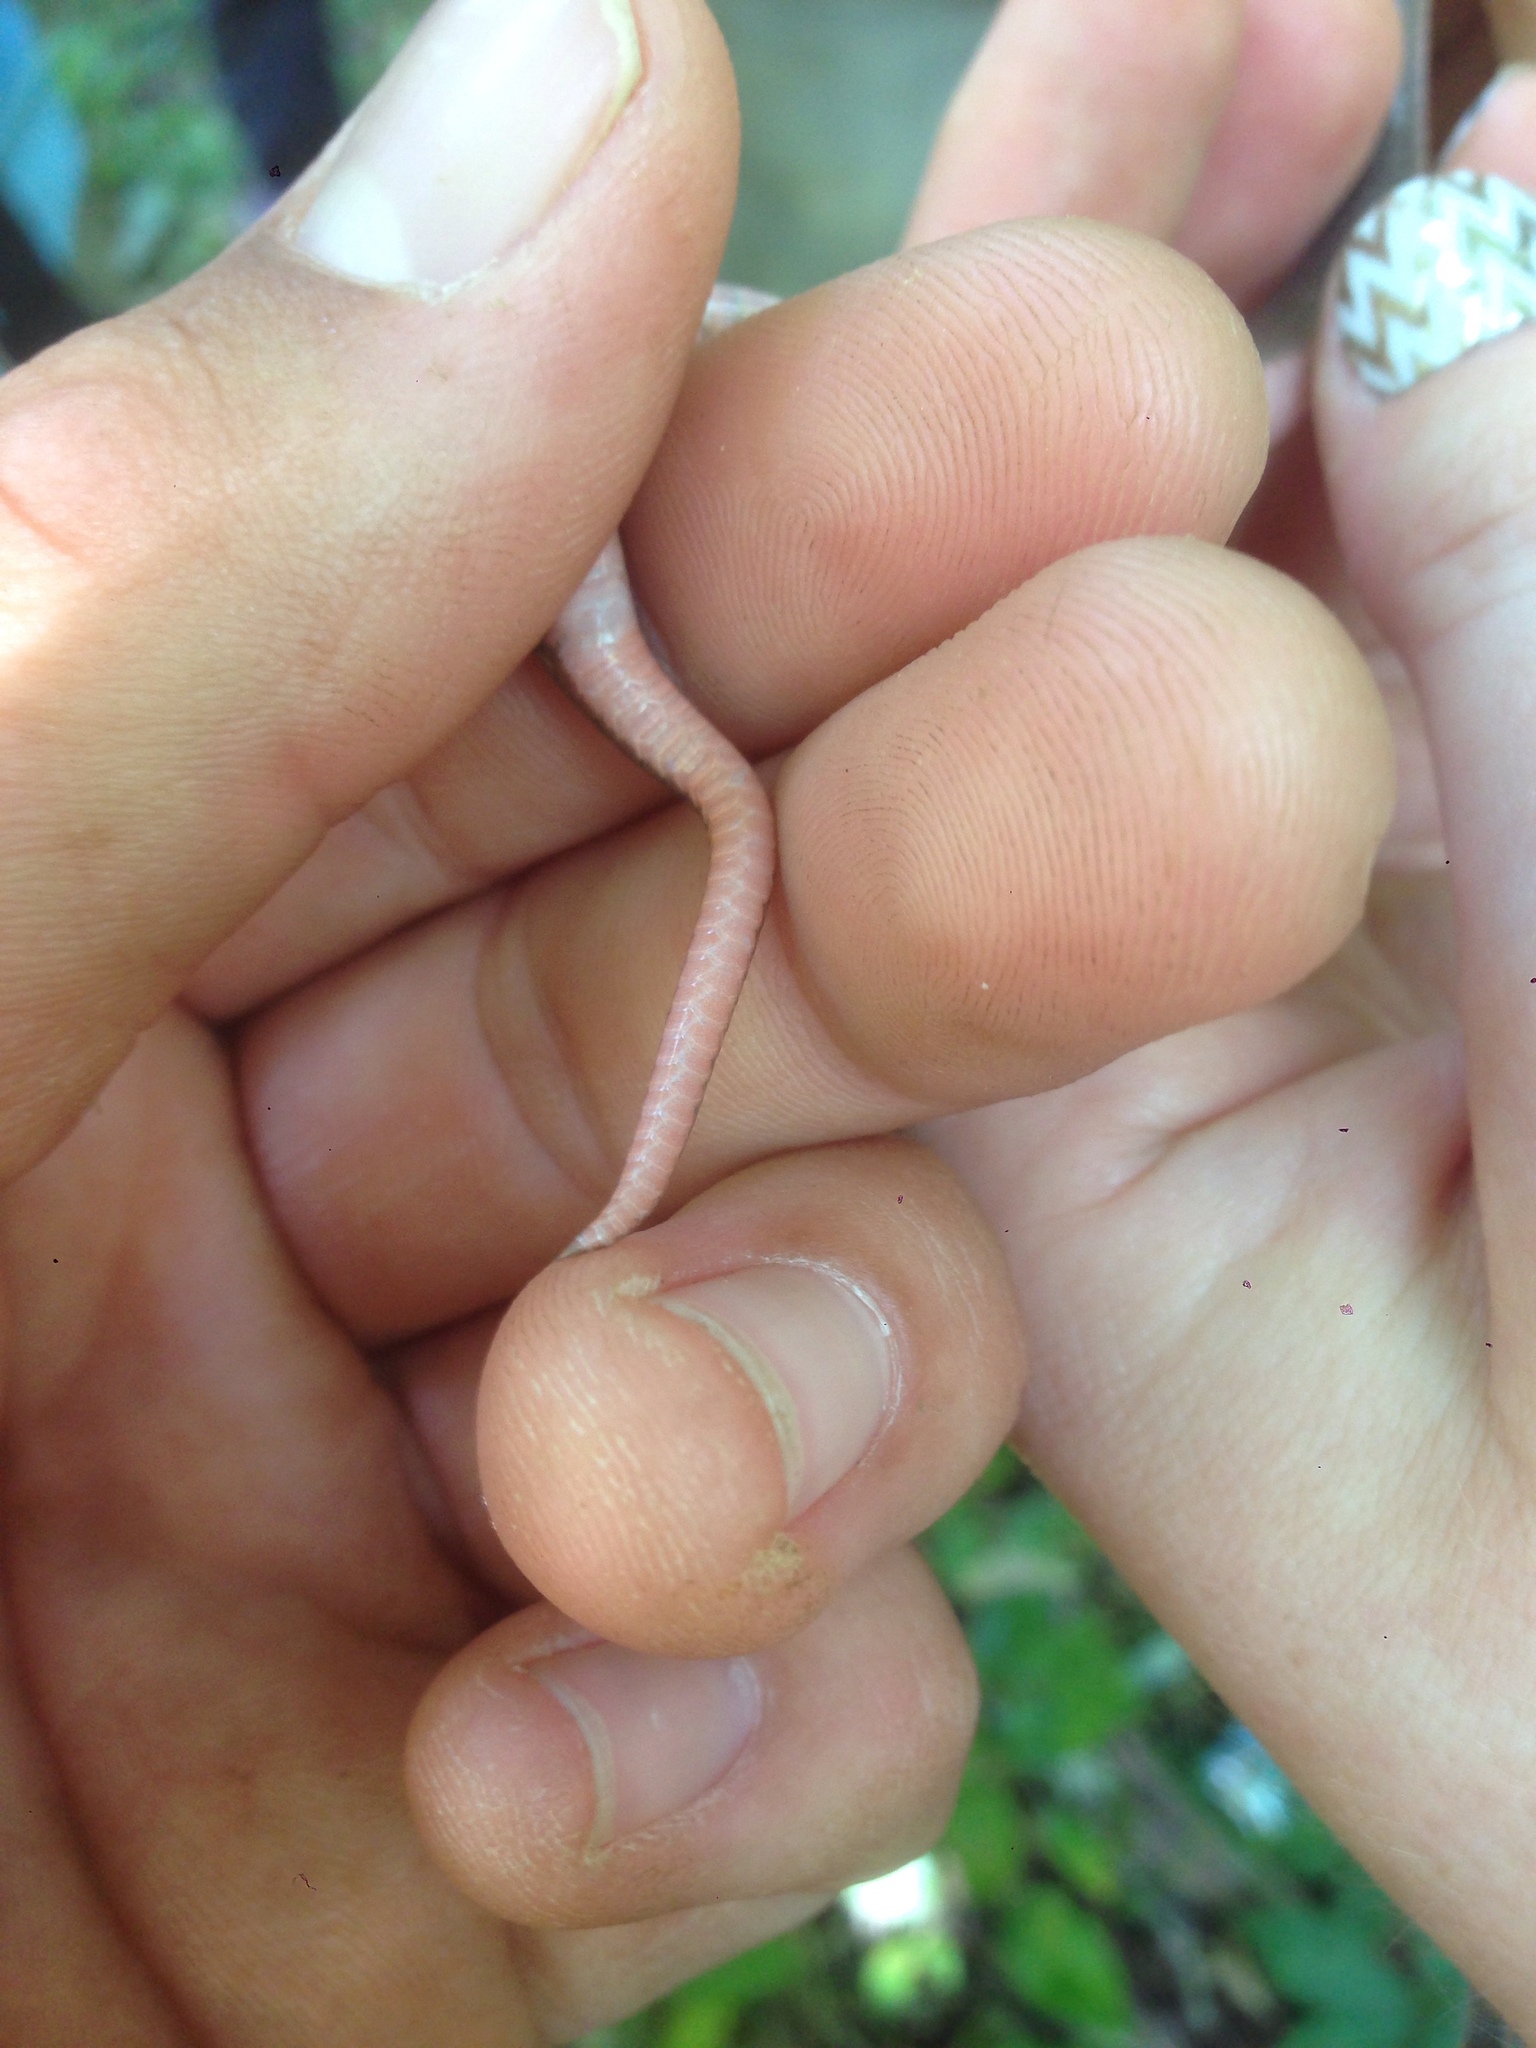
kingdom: Animalia
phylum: Chordata
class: Squamata
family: Colubridae
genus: Carphophis
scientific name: Carphophis amoenus
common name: Eastern worm snake
